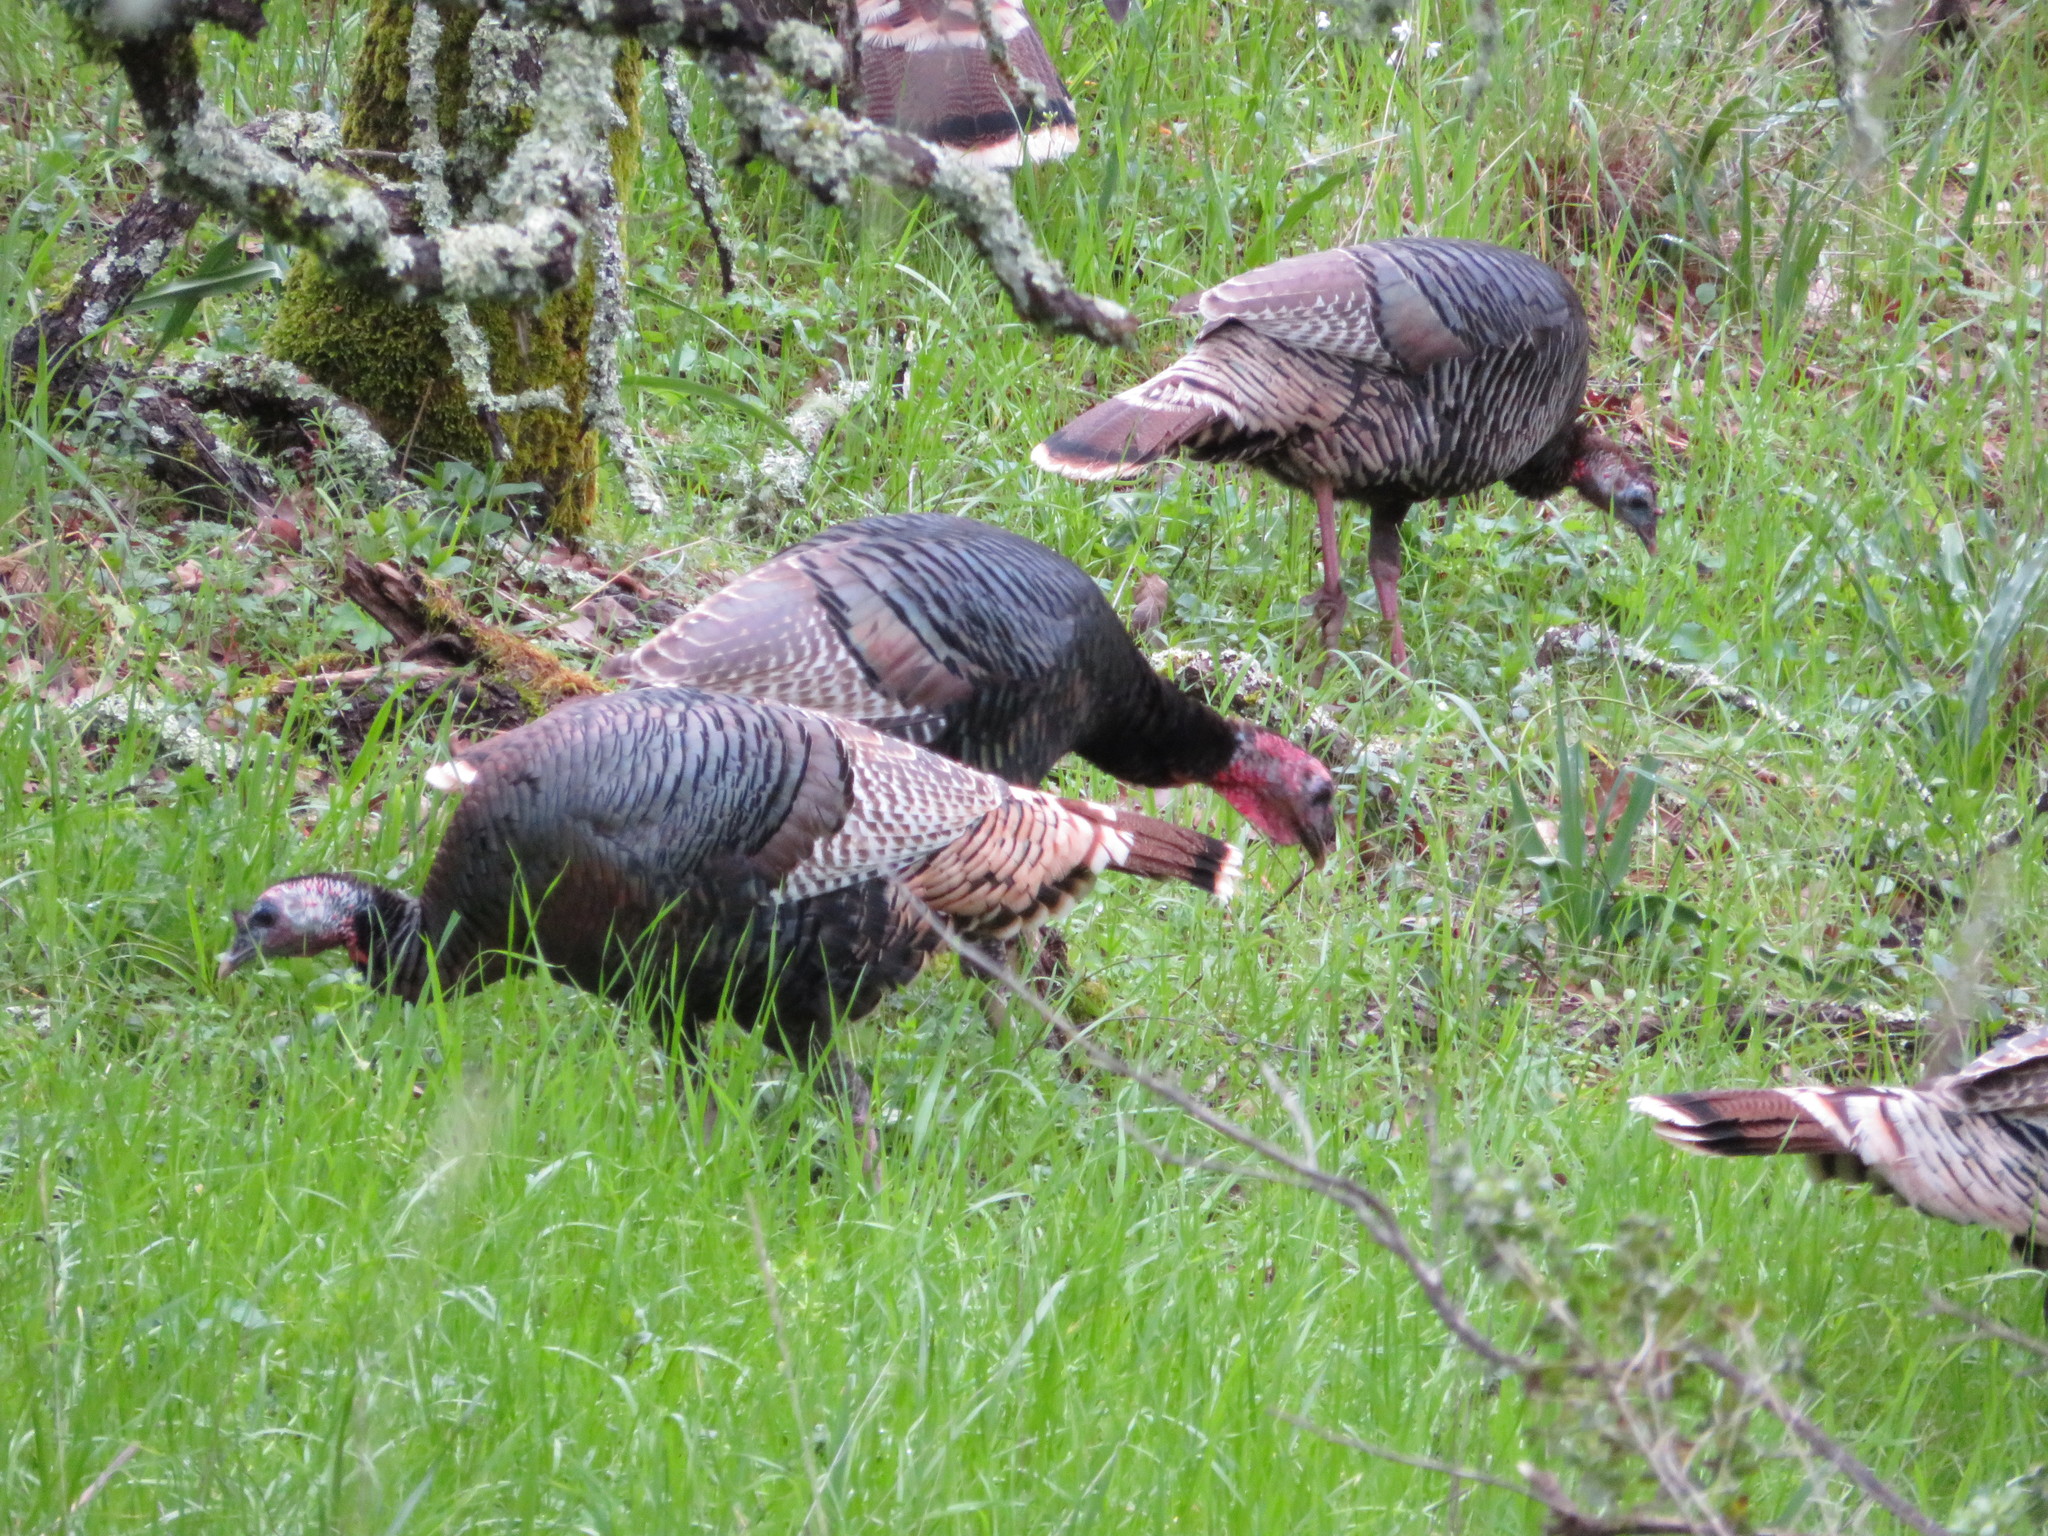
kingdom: Animalia
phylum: Chordata
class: Aves
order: Galliformes
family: Phasianidae
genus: Meleagris
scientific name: Meleagris gallopavo
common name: Wild turkey
